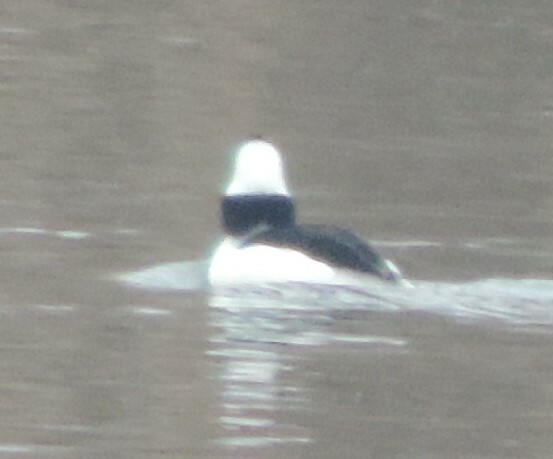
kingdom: Animalia
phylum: Chordata
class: Aves
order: Anseriformes
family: Anatidae
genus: Bucephala
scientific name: Bucephala albeola
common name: Bufflehead
